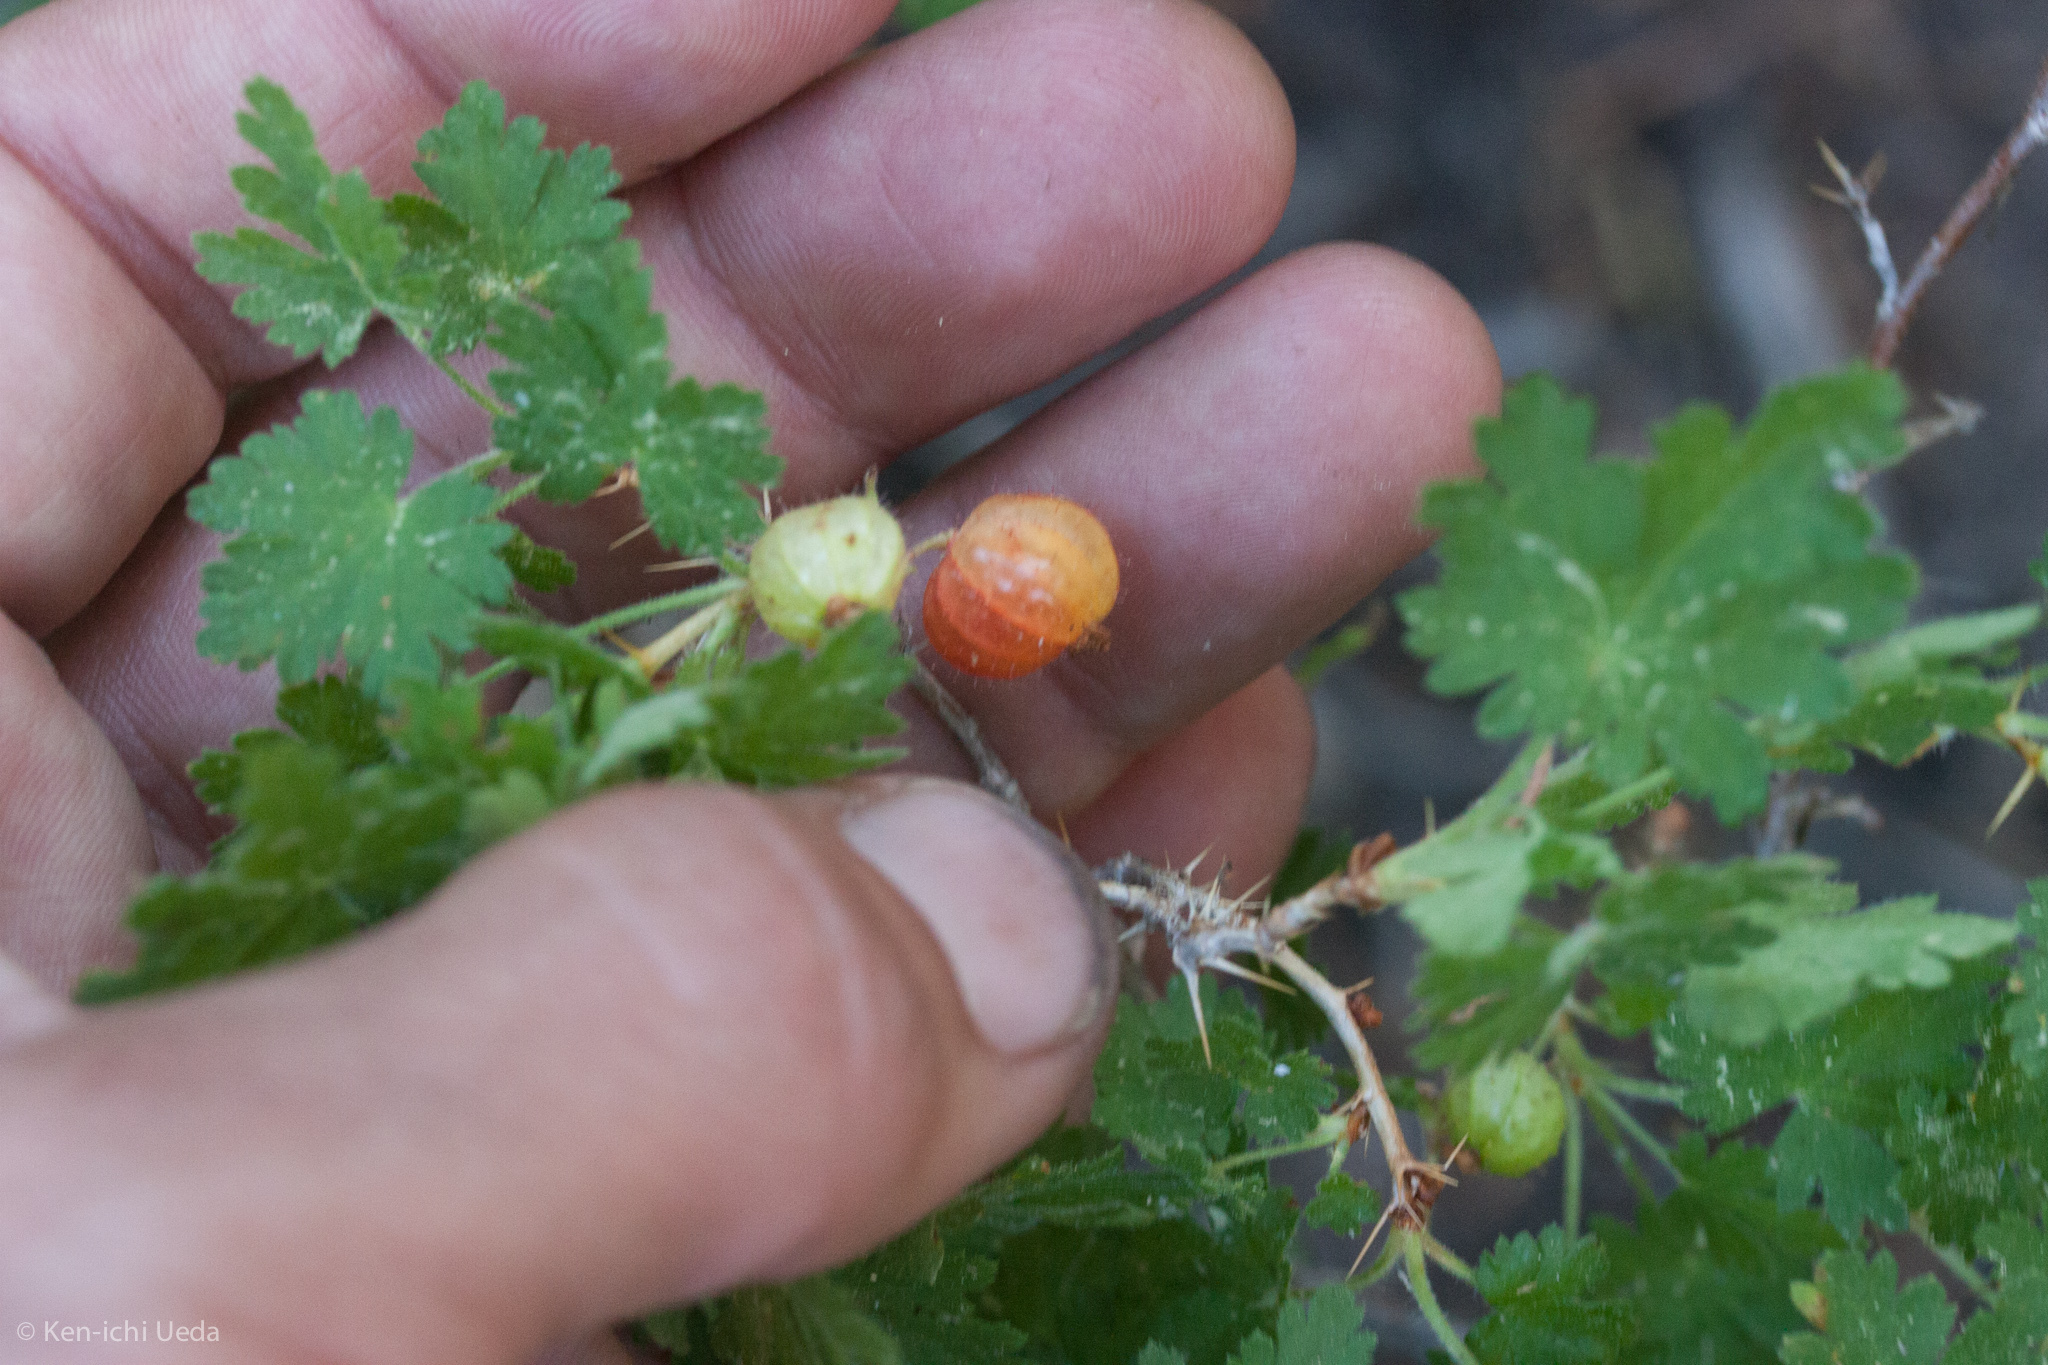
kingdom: Plantae
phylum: Tracheophyta
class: Magnoliopsida
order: Saxifragales
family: Grossulariaceae
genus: Ribes
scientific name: Ribes montigenum
